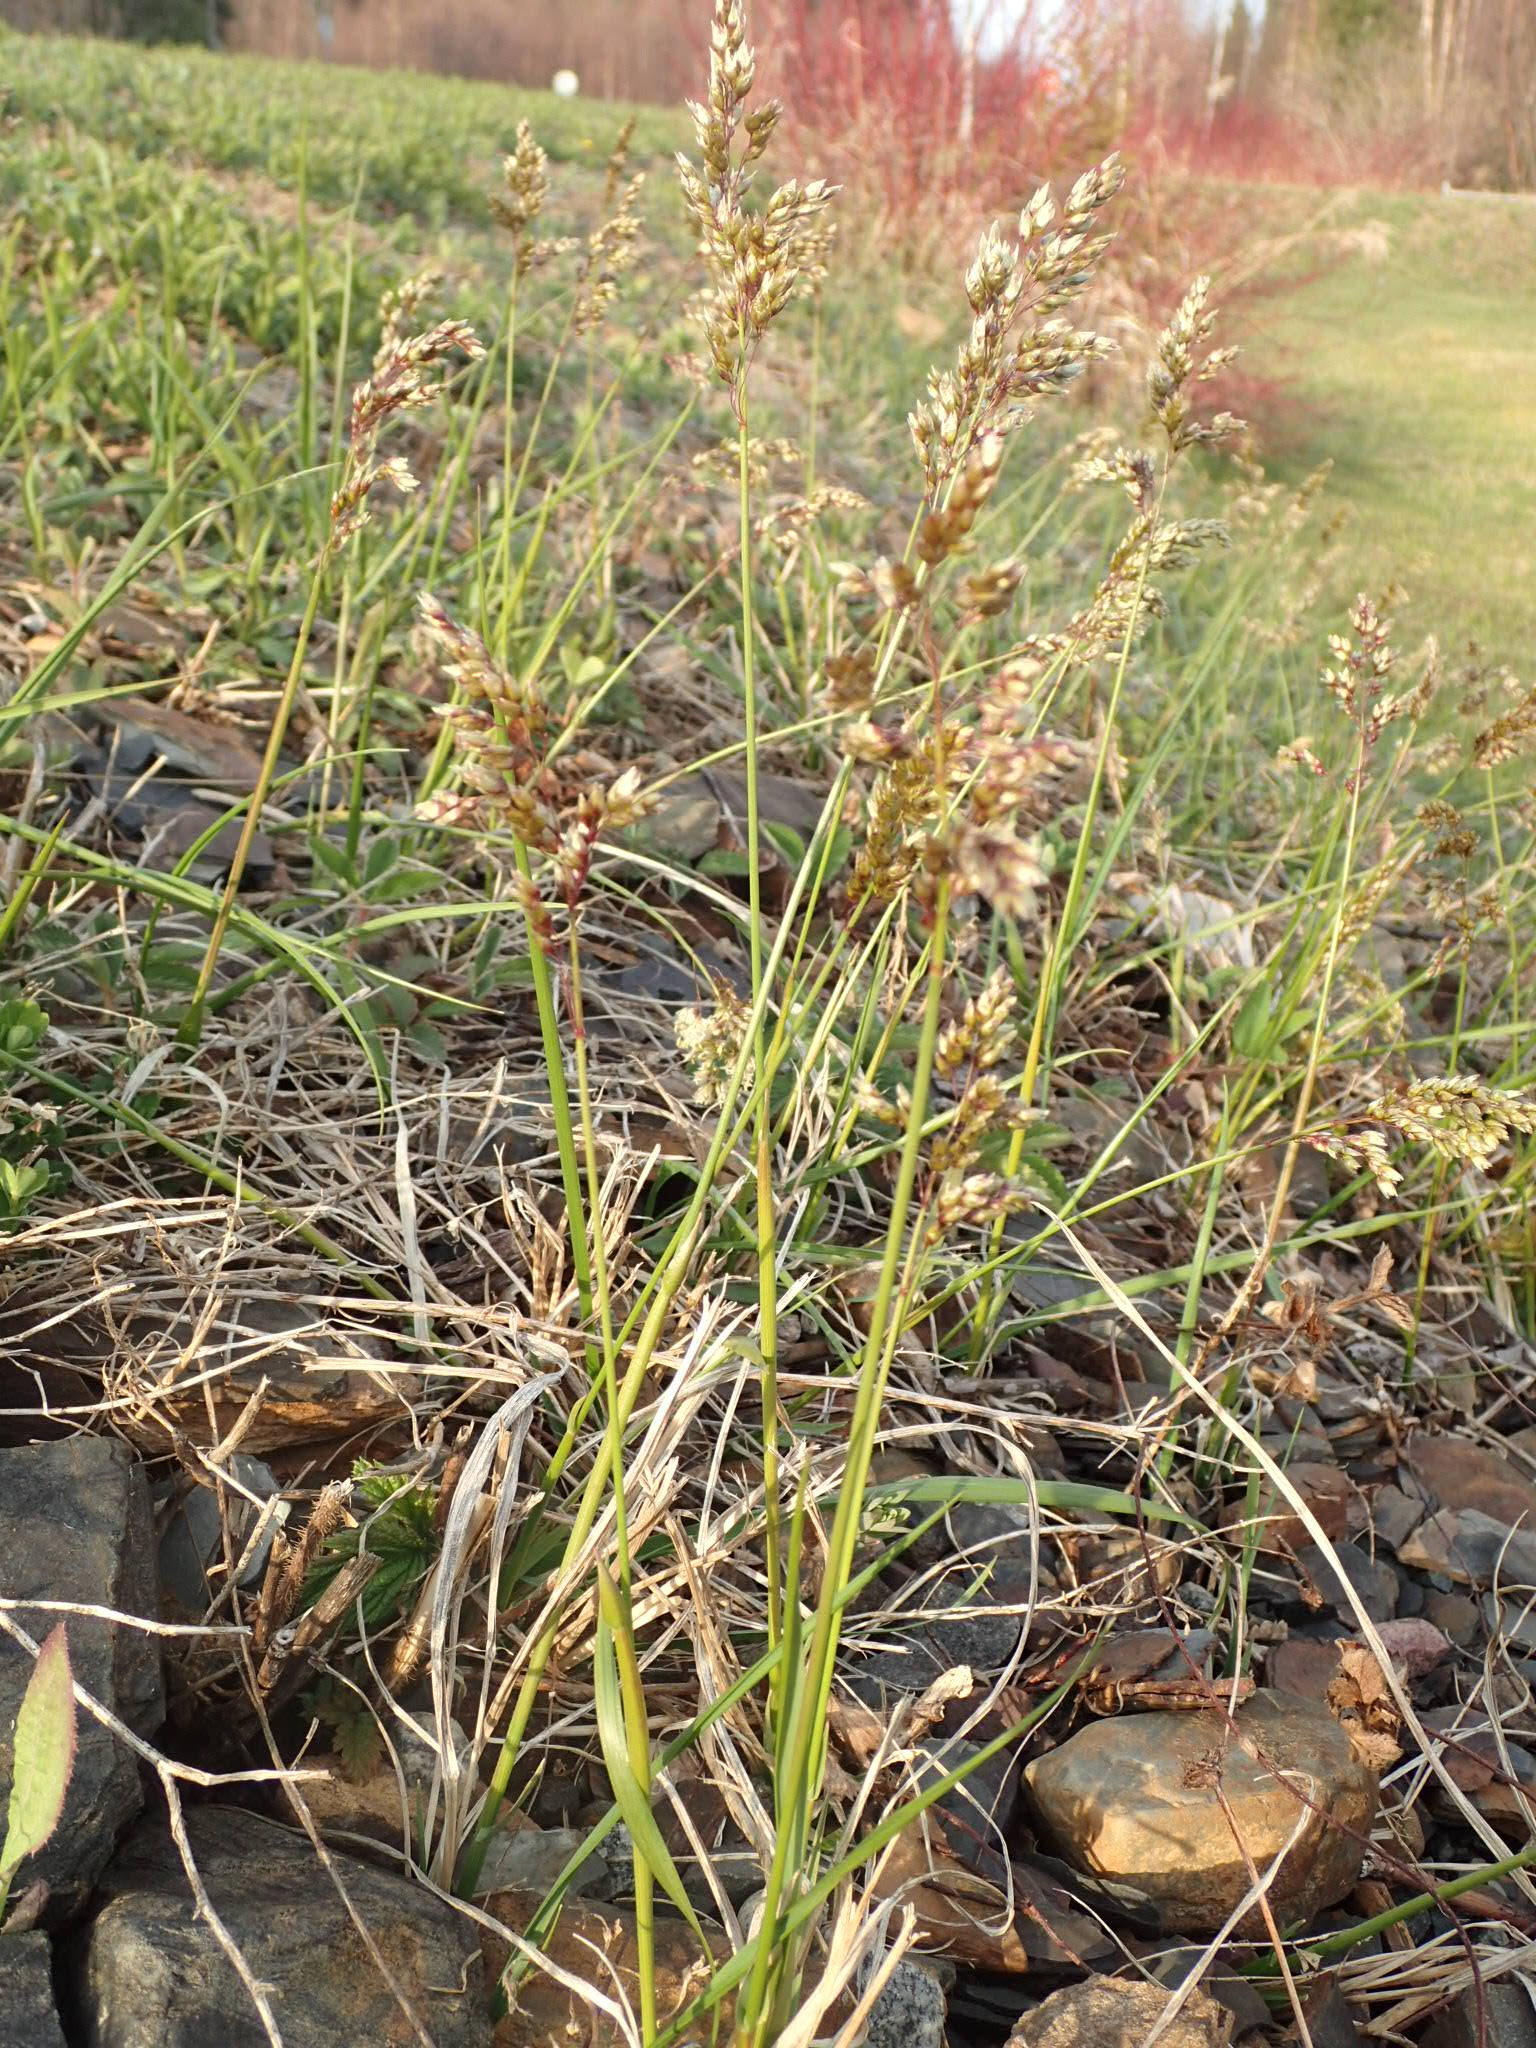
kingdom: Plantae
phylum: Tracheophyta
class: Liliopsida
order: Poales
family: Poaceae
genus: Anthoxanthum
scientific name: Anthoxanthum nitens
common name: Holy grass
